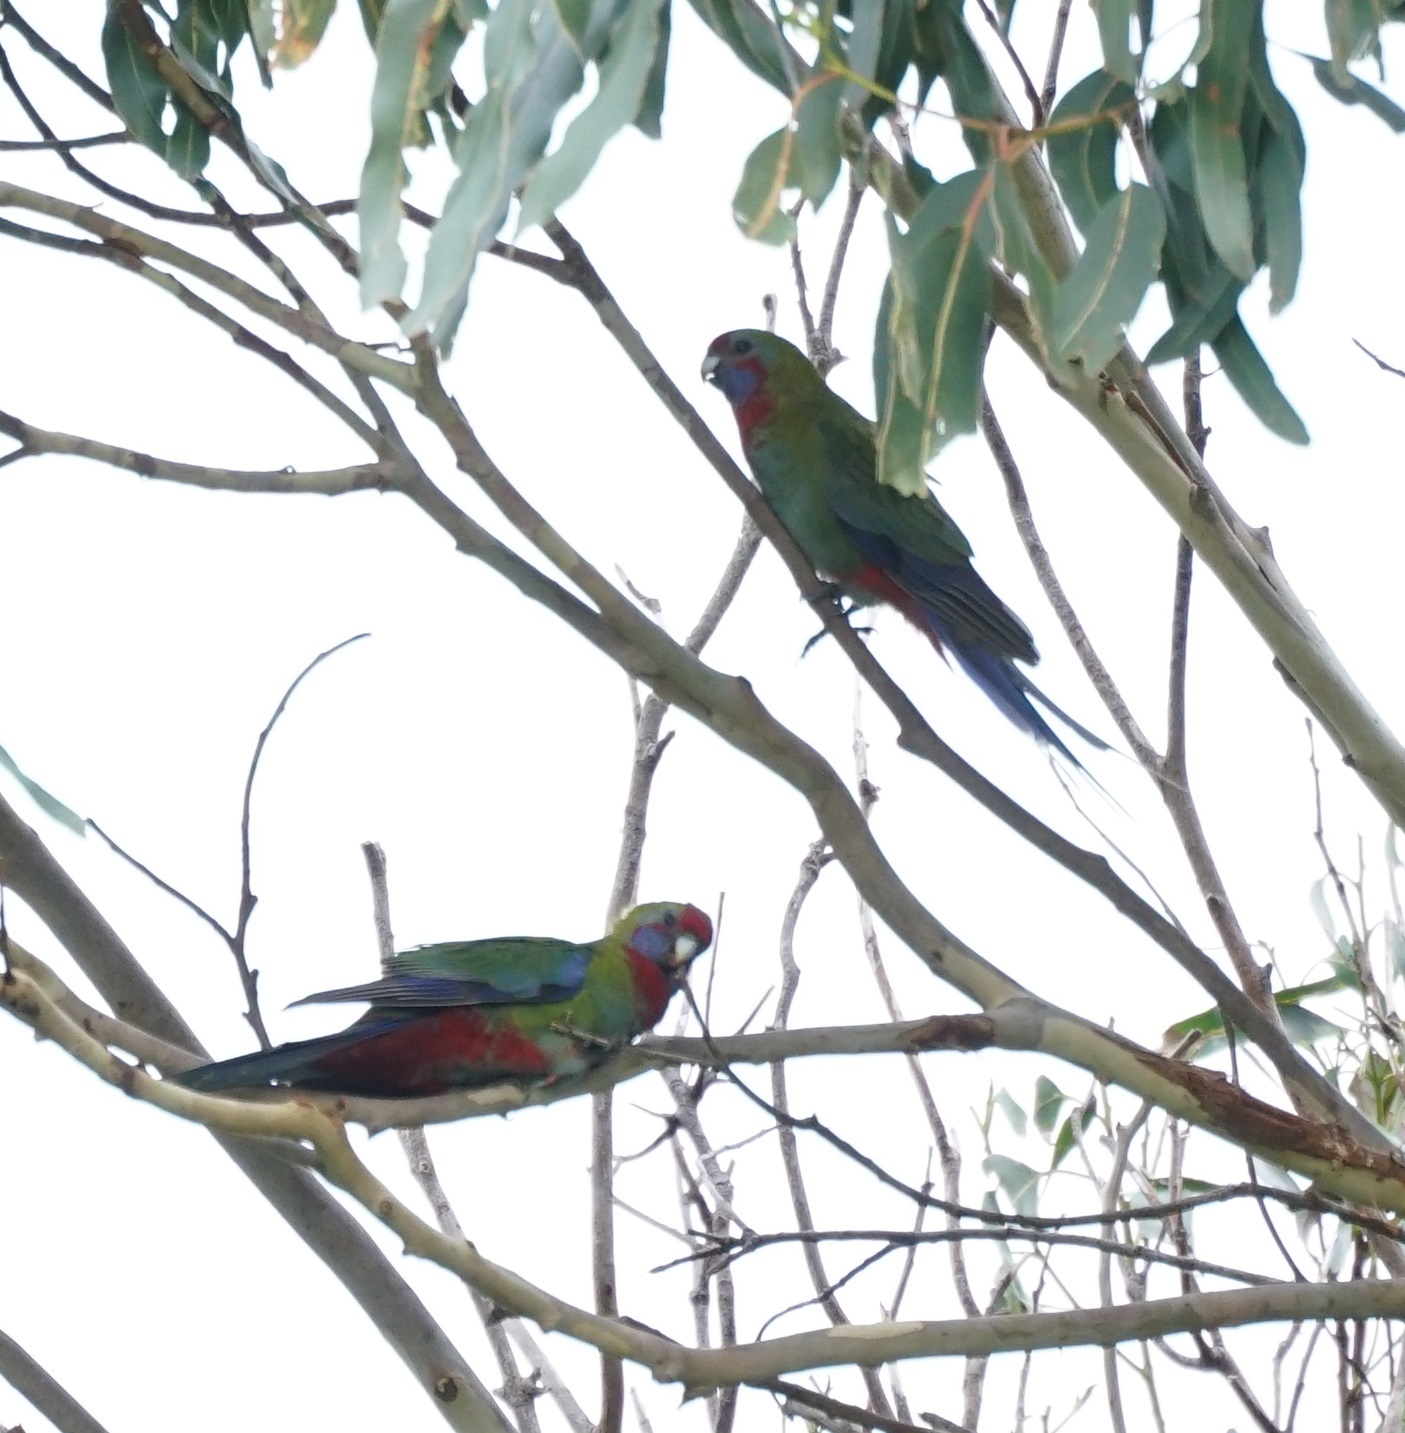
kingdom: Animalia
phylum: Chordata
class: Aves
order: Psittaciformes
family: Psittacidae
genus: Platycercus
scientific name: Platycercus elegans
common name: Crimson rosella
